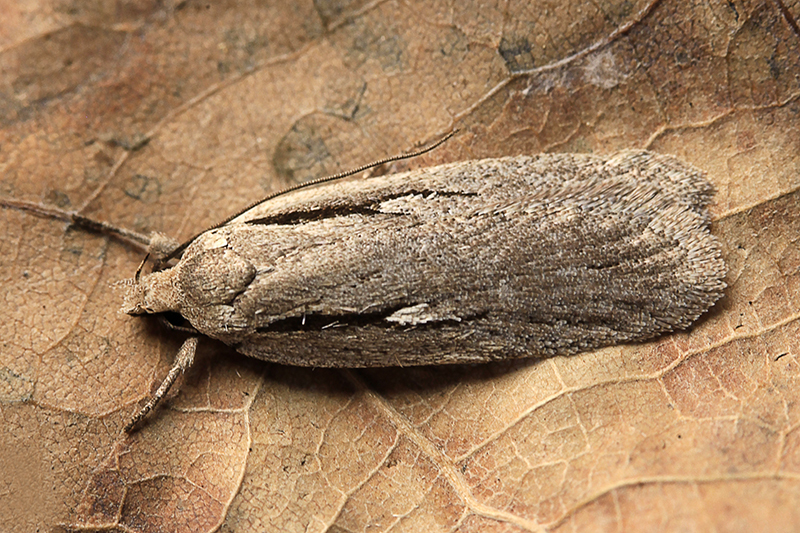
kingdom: Animalia
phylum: Arthropoda
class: Insecta
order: Lepidoptera
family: Oecophoridae
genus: Horridopalpus
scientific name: Horridopalpus hystricella
